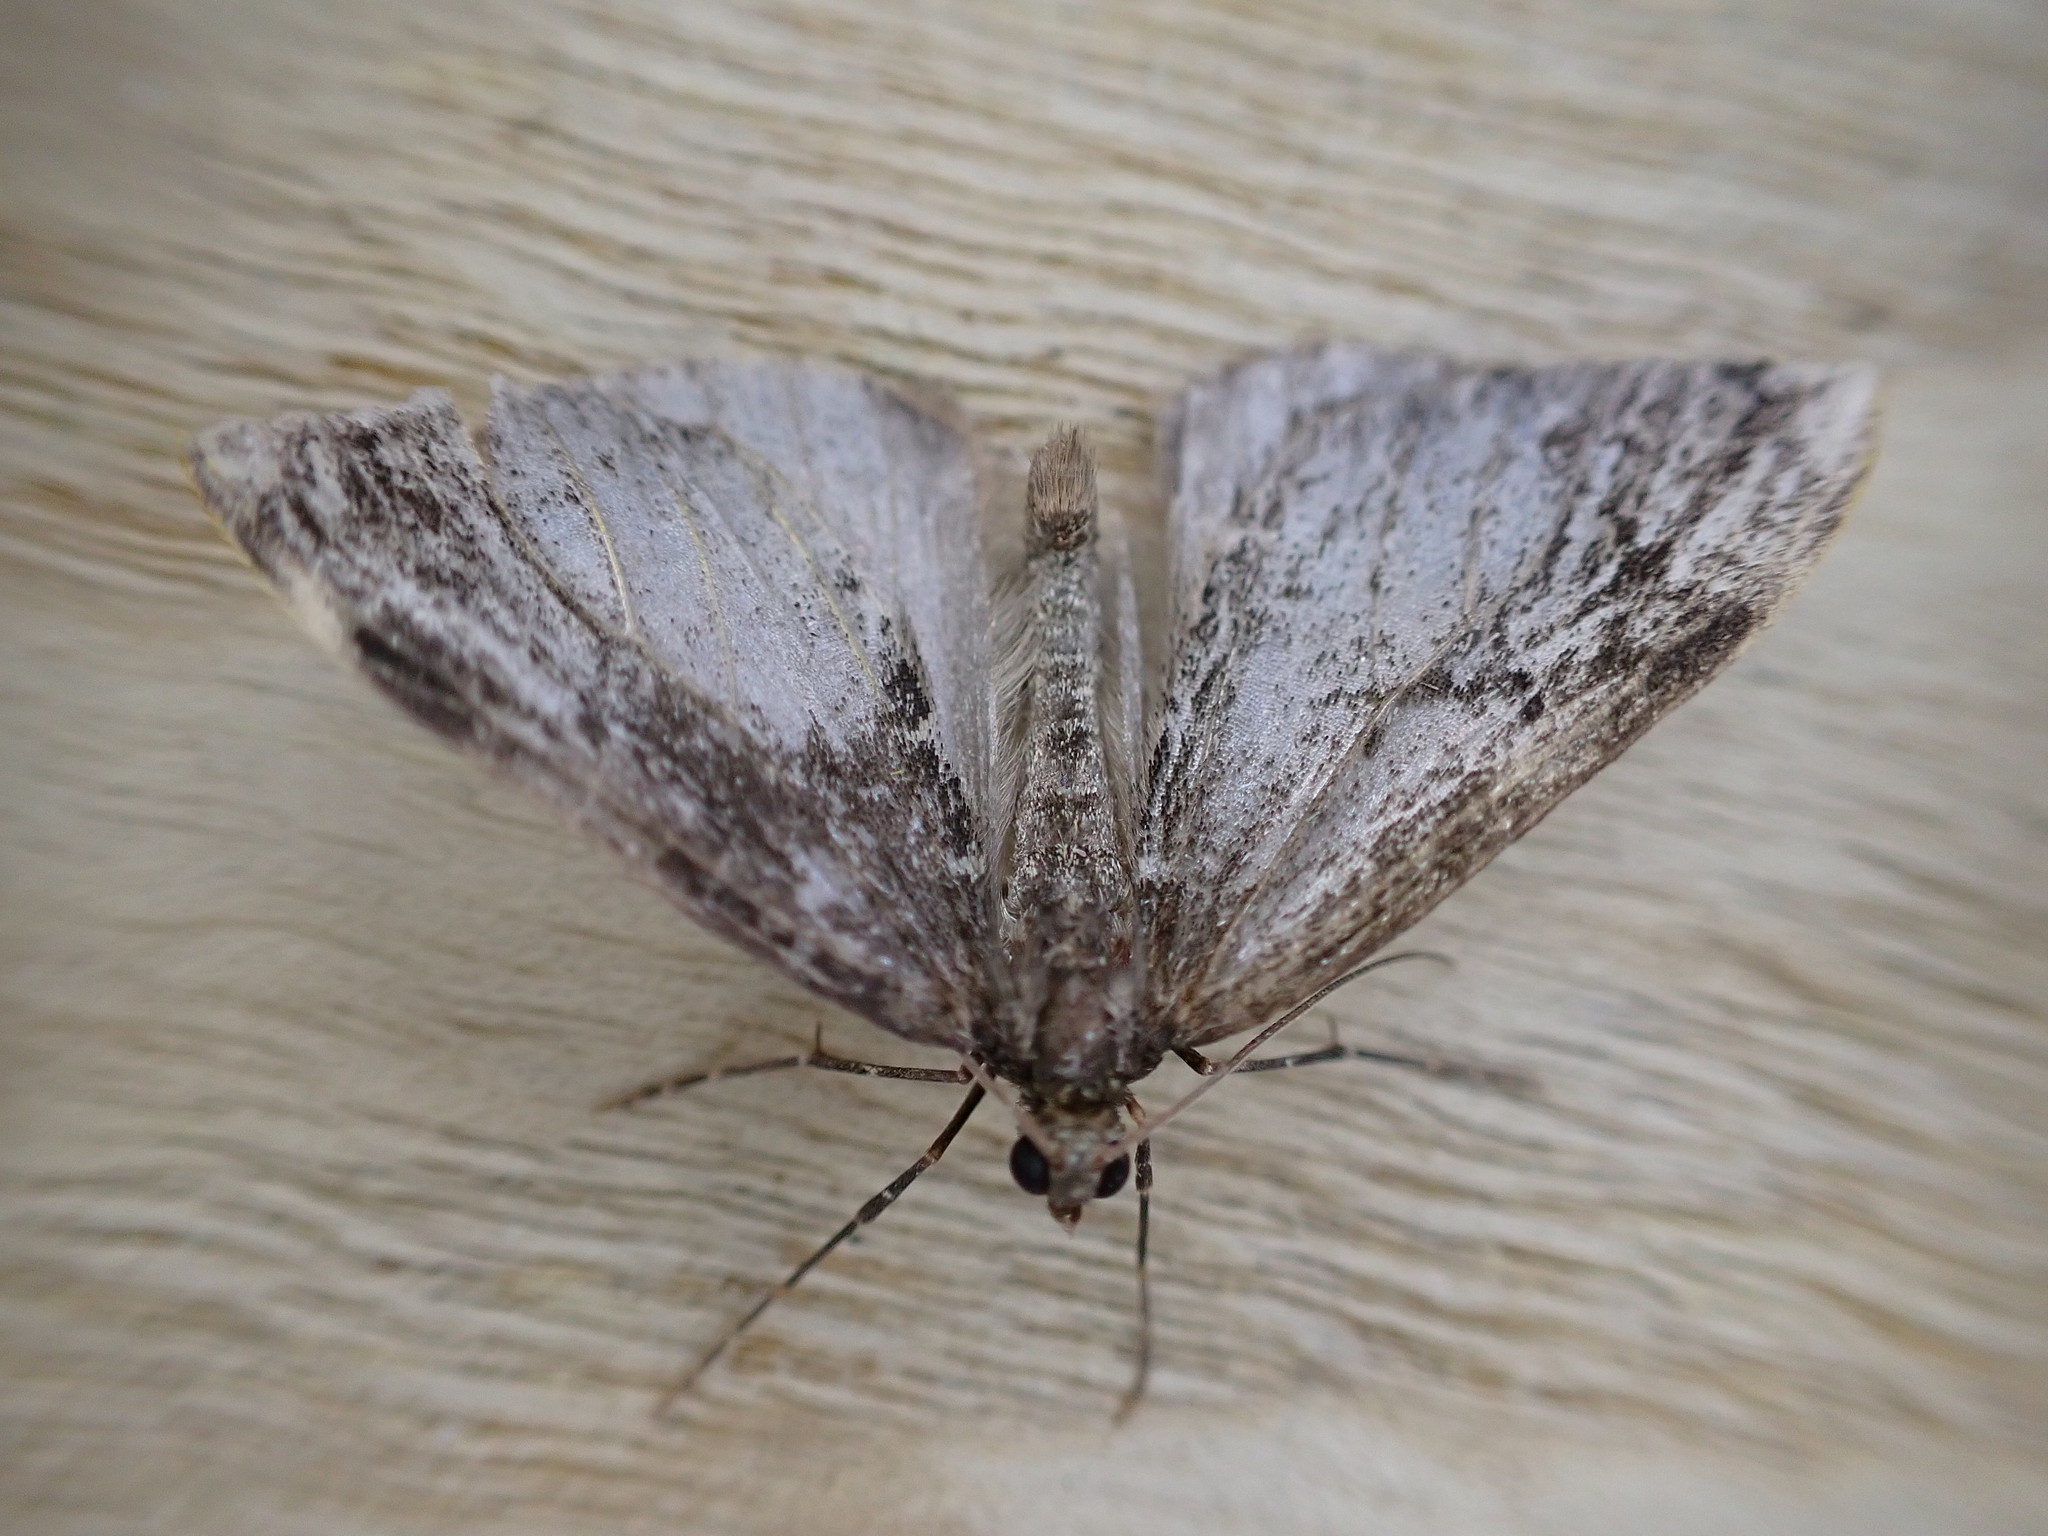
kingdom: Animalia
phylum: Arthropoda
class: Insecta
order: Lepidoptera
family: Geometridae
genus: Dysstroma
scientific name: Dysstroma truncata
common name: Common marbled carpet
